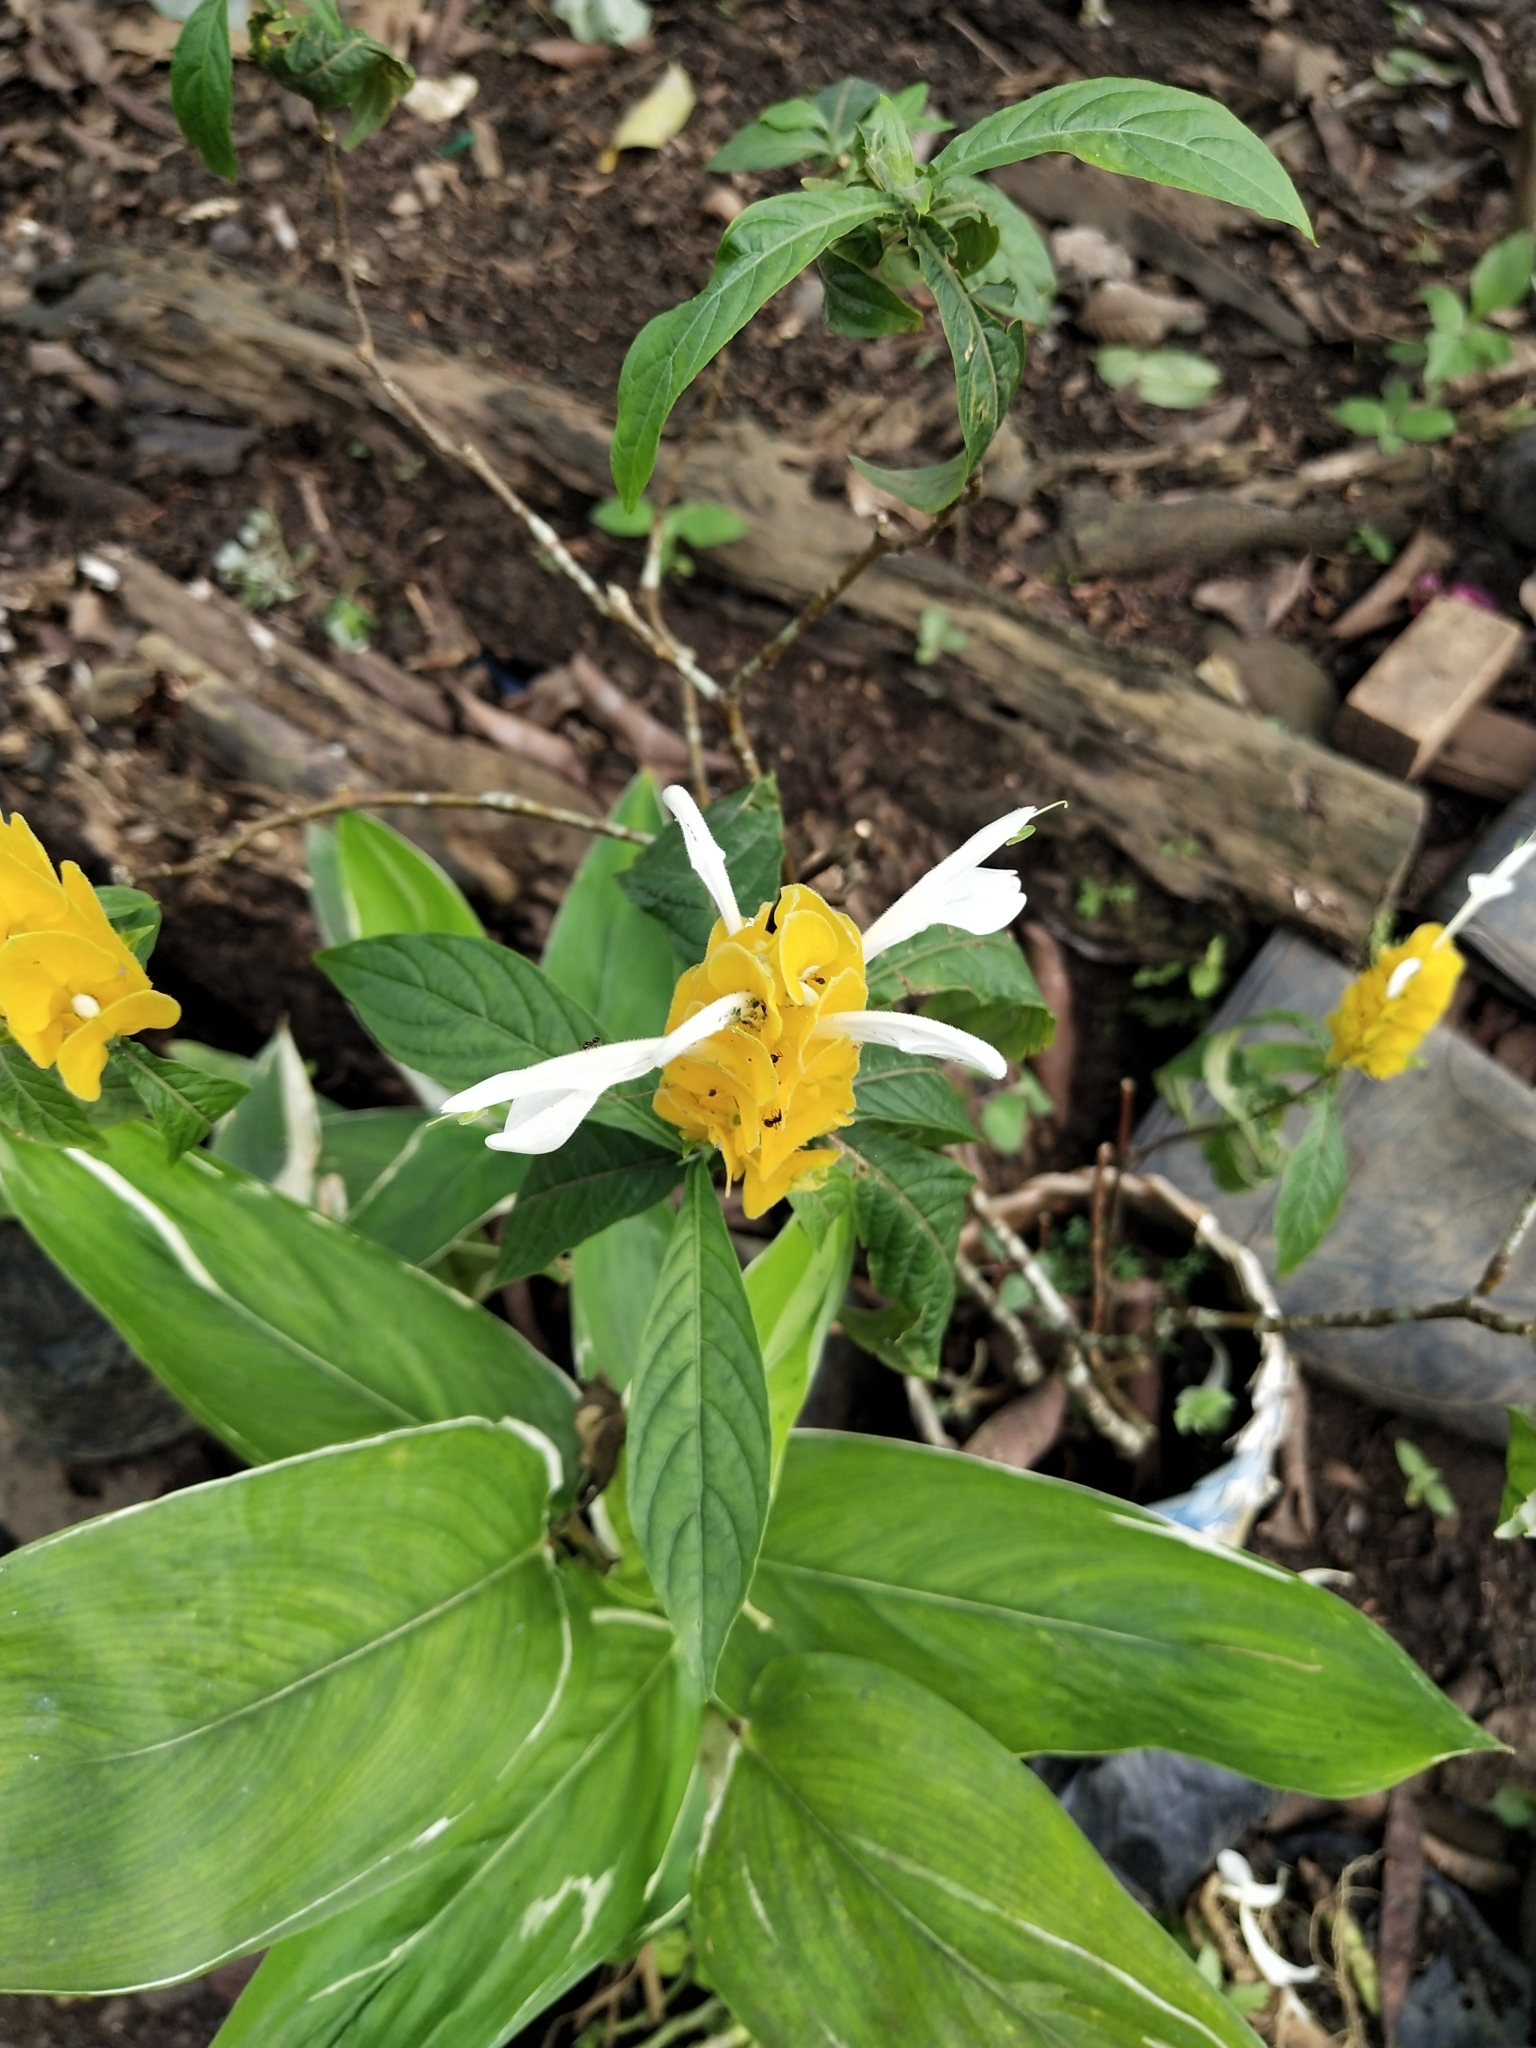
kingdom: Plantae
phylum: Tracheophyta
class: Magnoliopsida
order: Lamiales
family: Acanthaceae
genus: Pachystachys
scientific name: Pachystachys lutea
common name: Golden shrimp-plant
